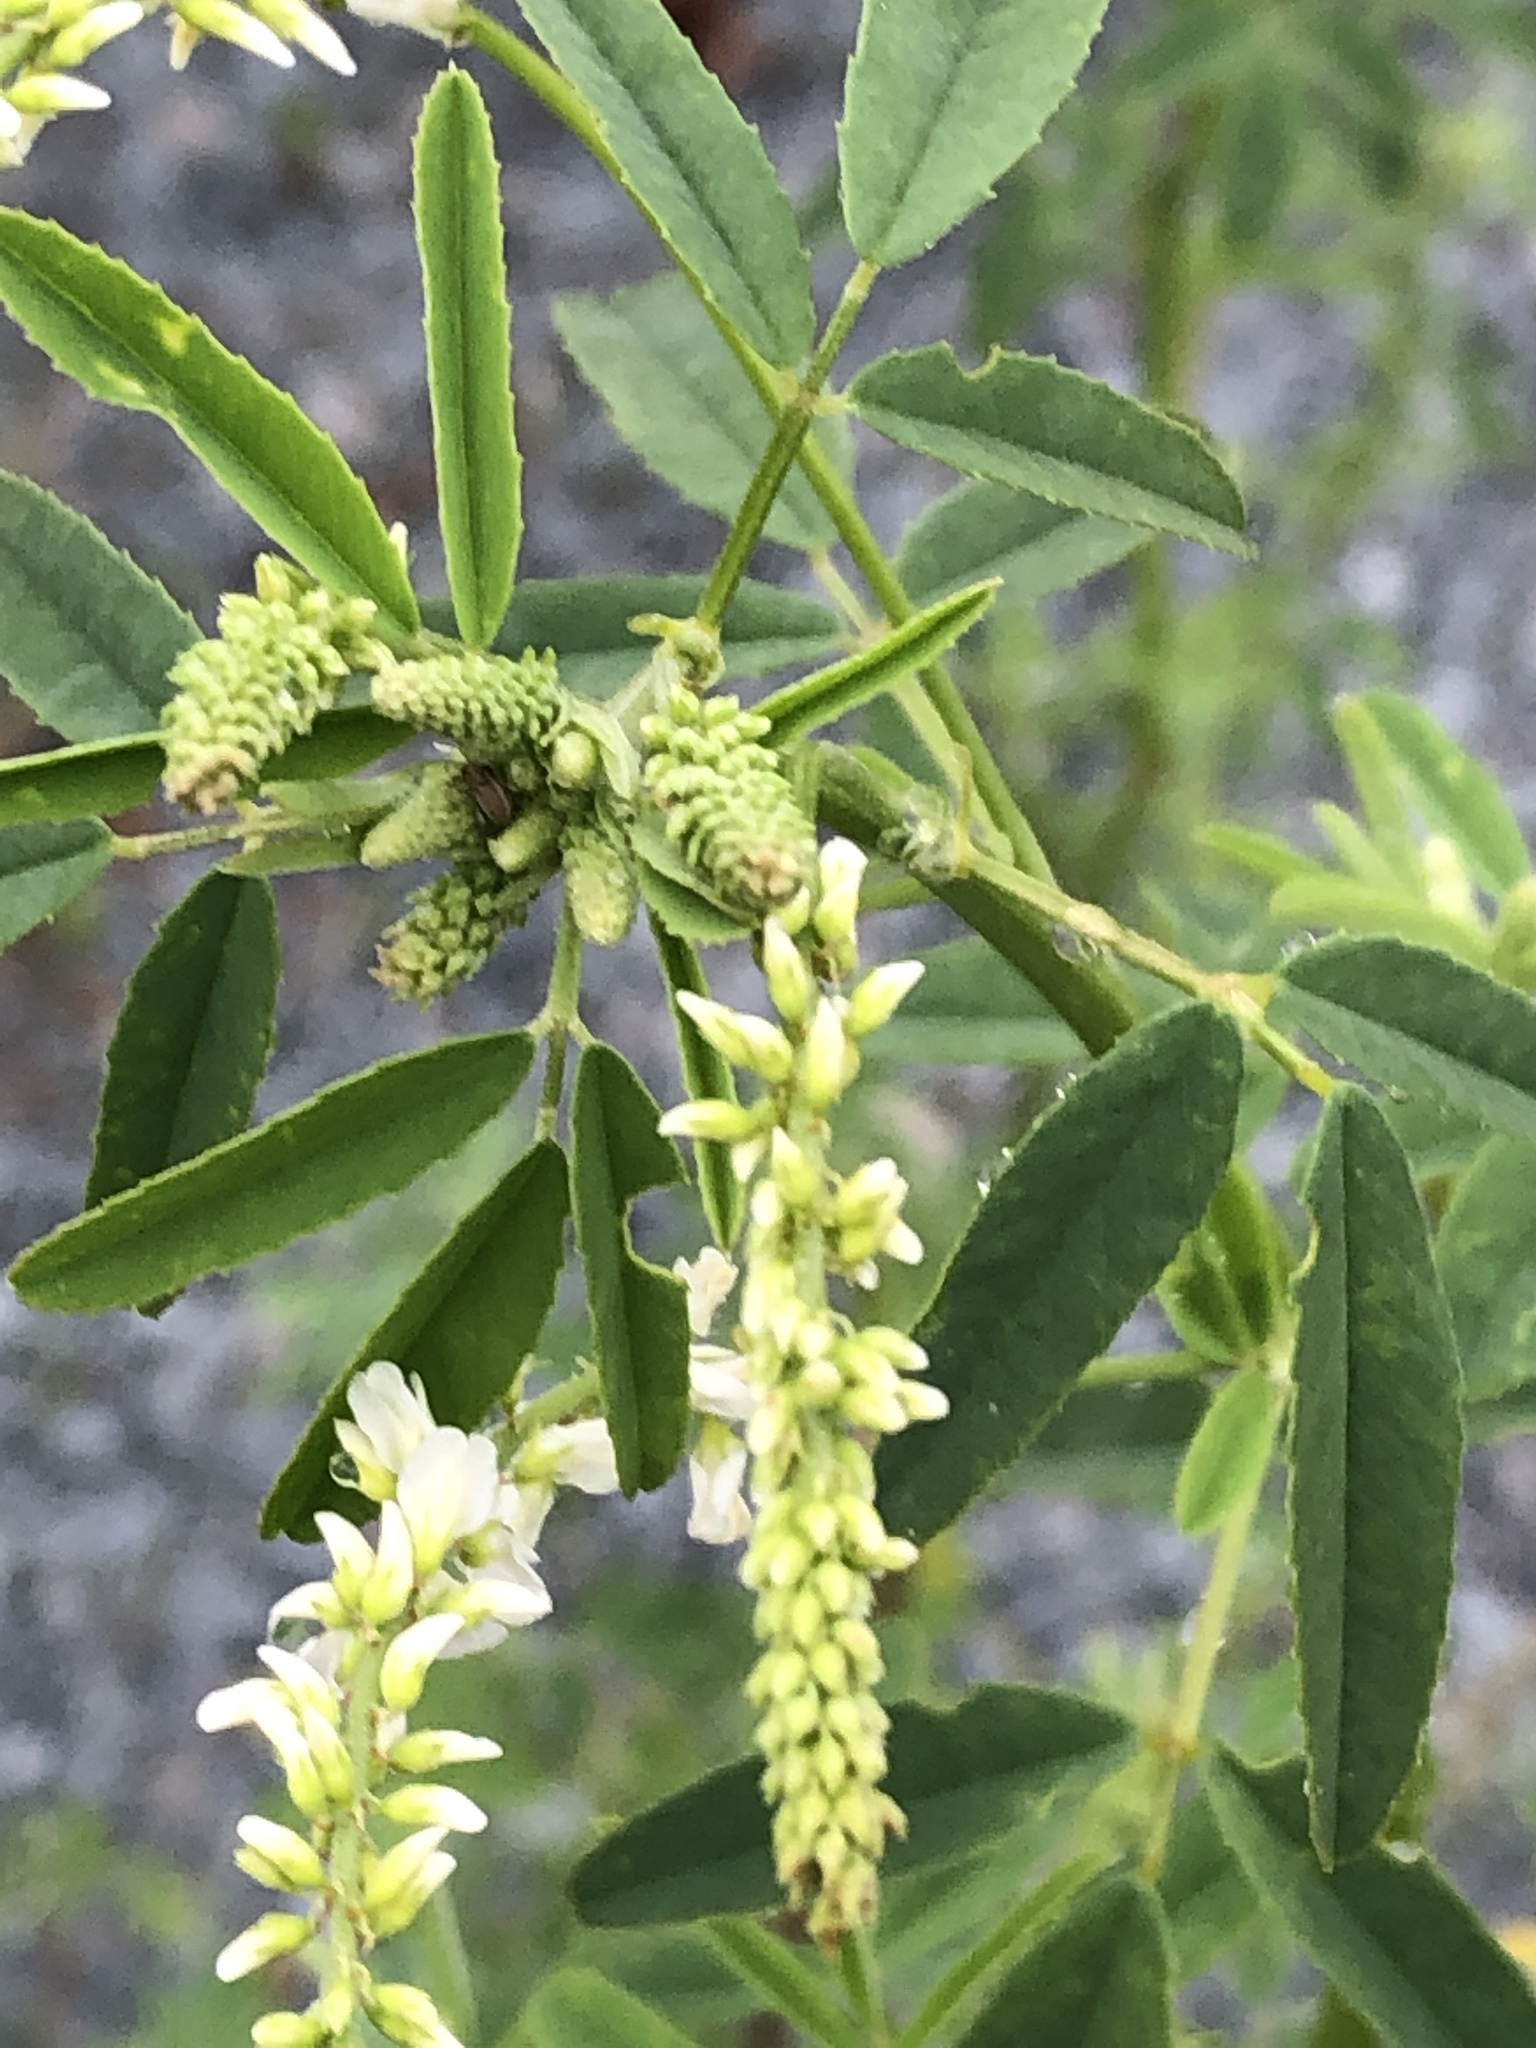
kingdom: Plantae
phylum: Tracheophyta
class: Magnoliopsida
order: Fabales
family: Fabaceae
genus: Melilotus
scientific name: Melilotus albus
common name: White melilot
